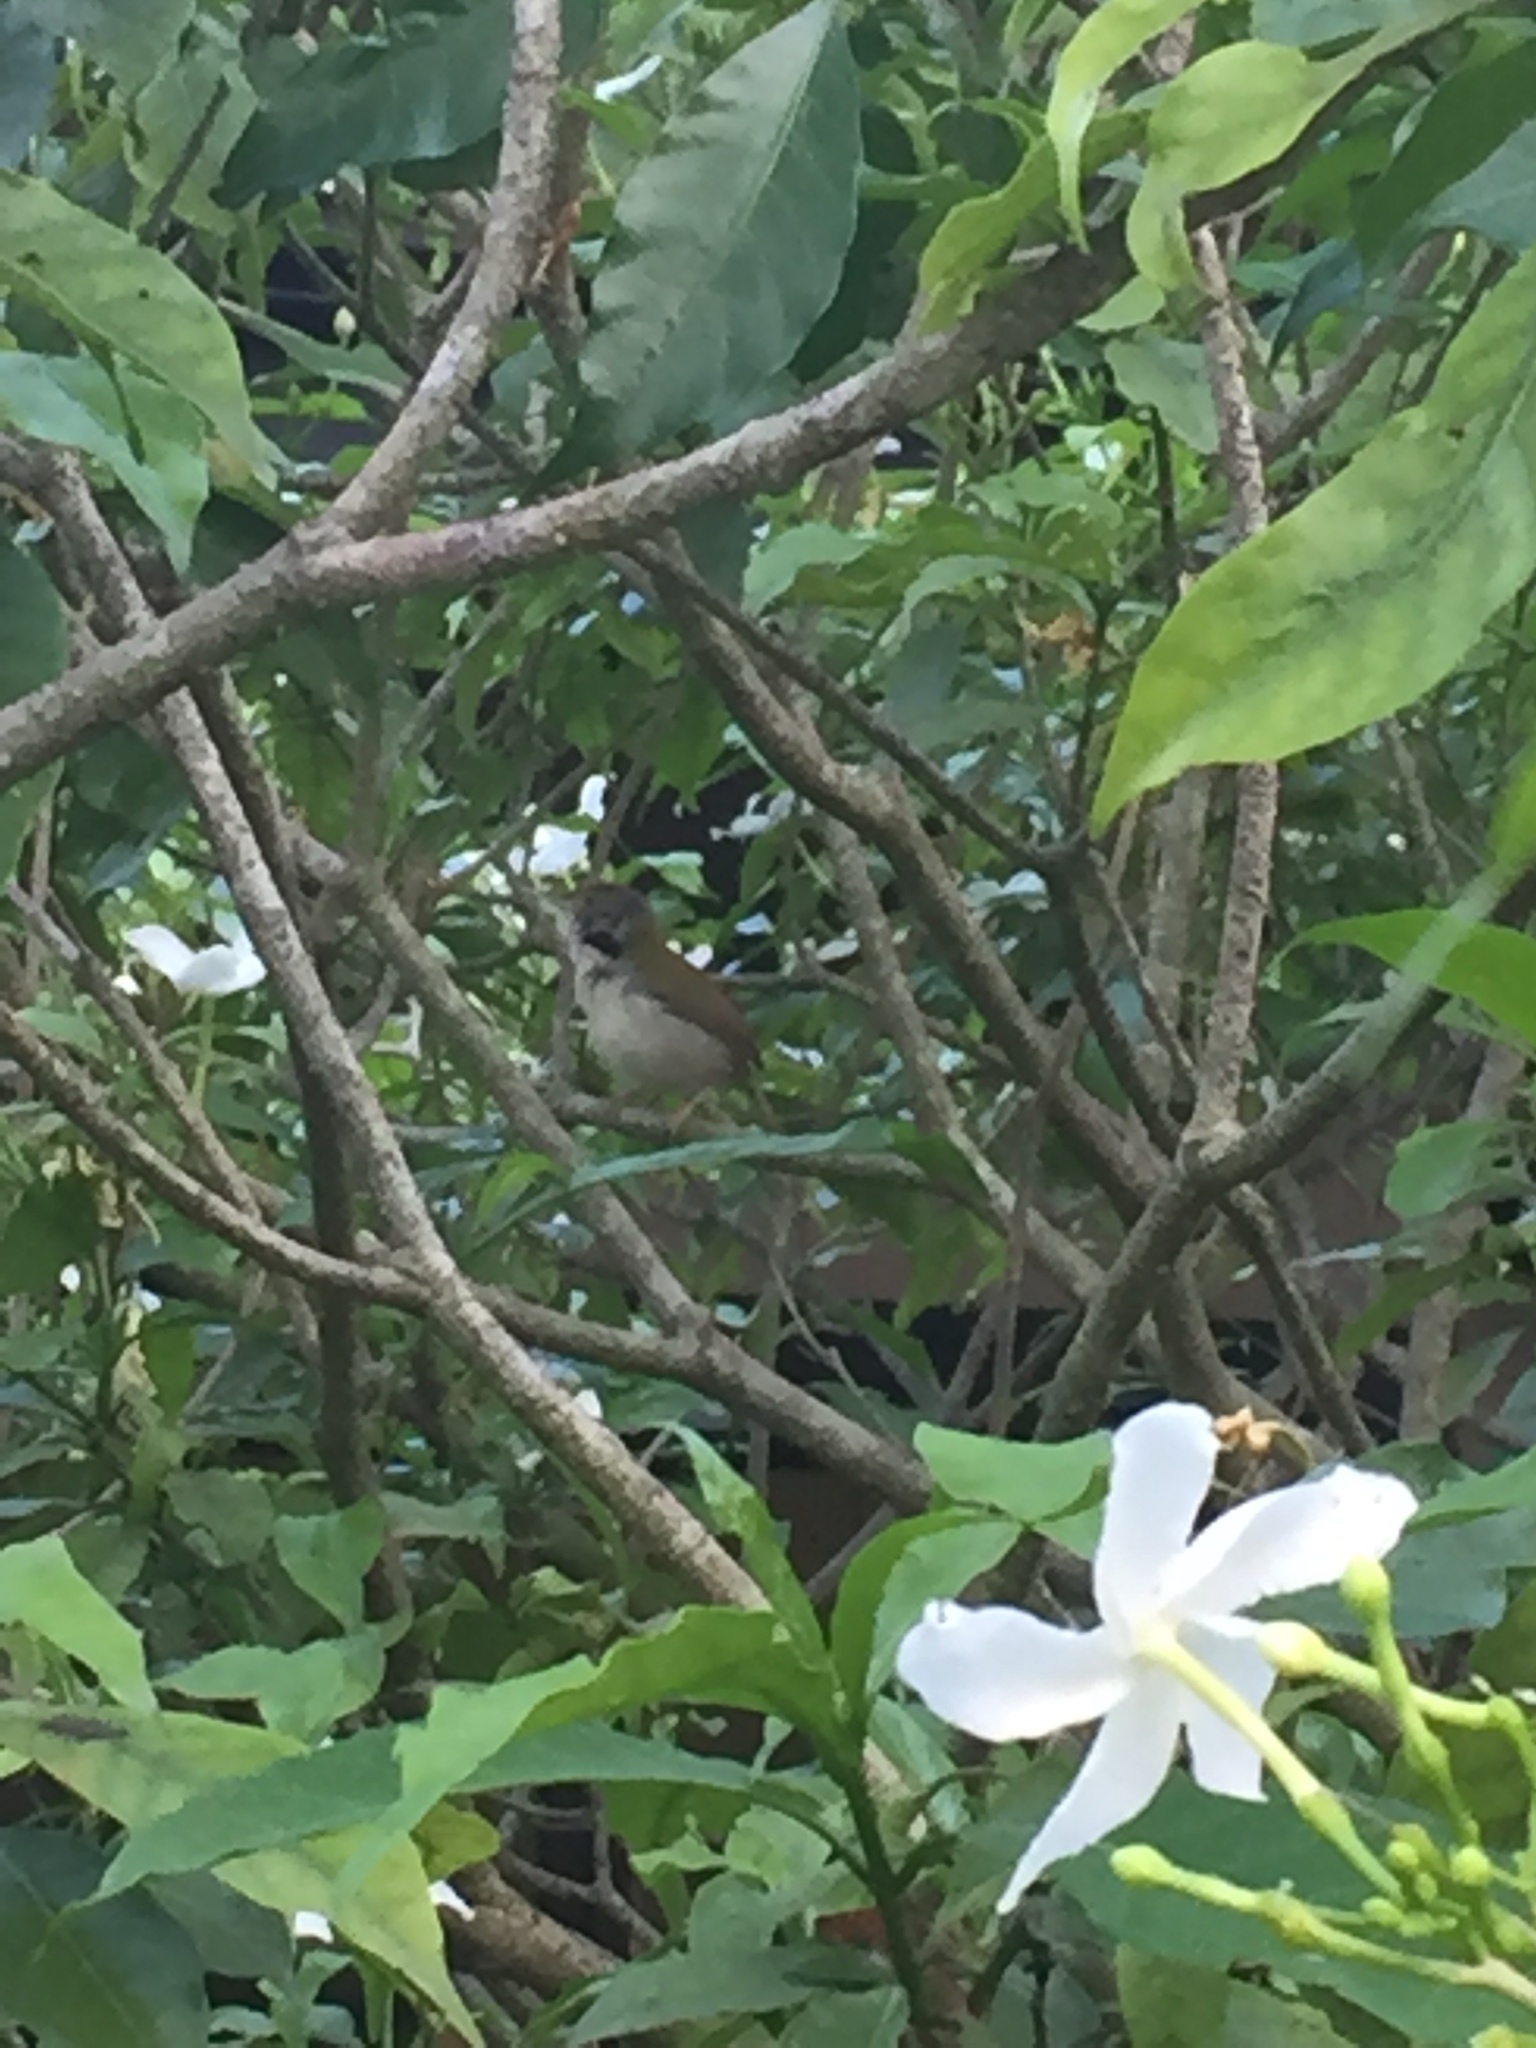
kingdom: Animalia
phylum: Chordata
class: Aves
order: Passeriformes
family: Cisticolidae
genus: Orthotomus
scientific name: Orthotomus sutorius
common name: Common tailorbird
